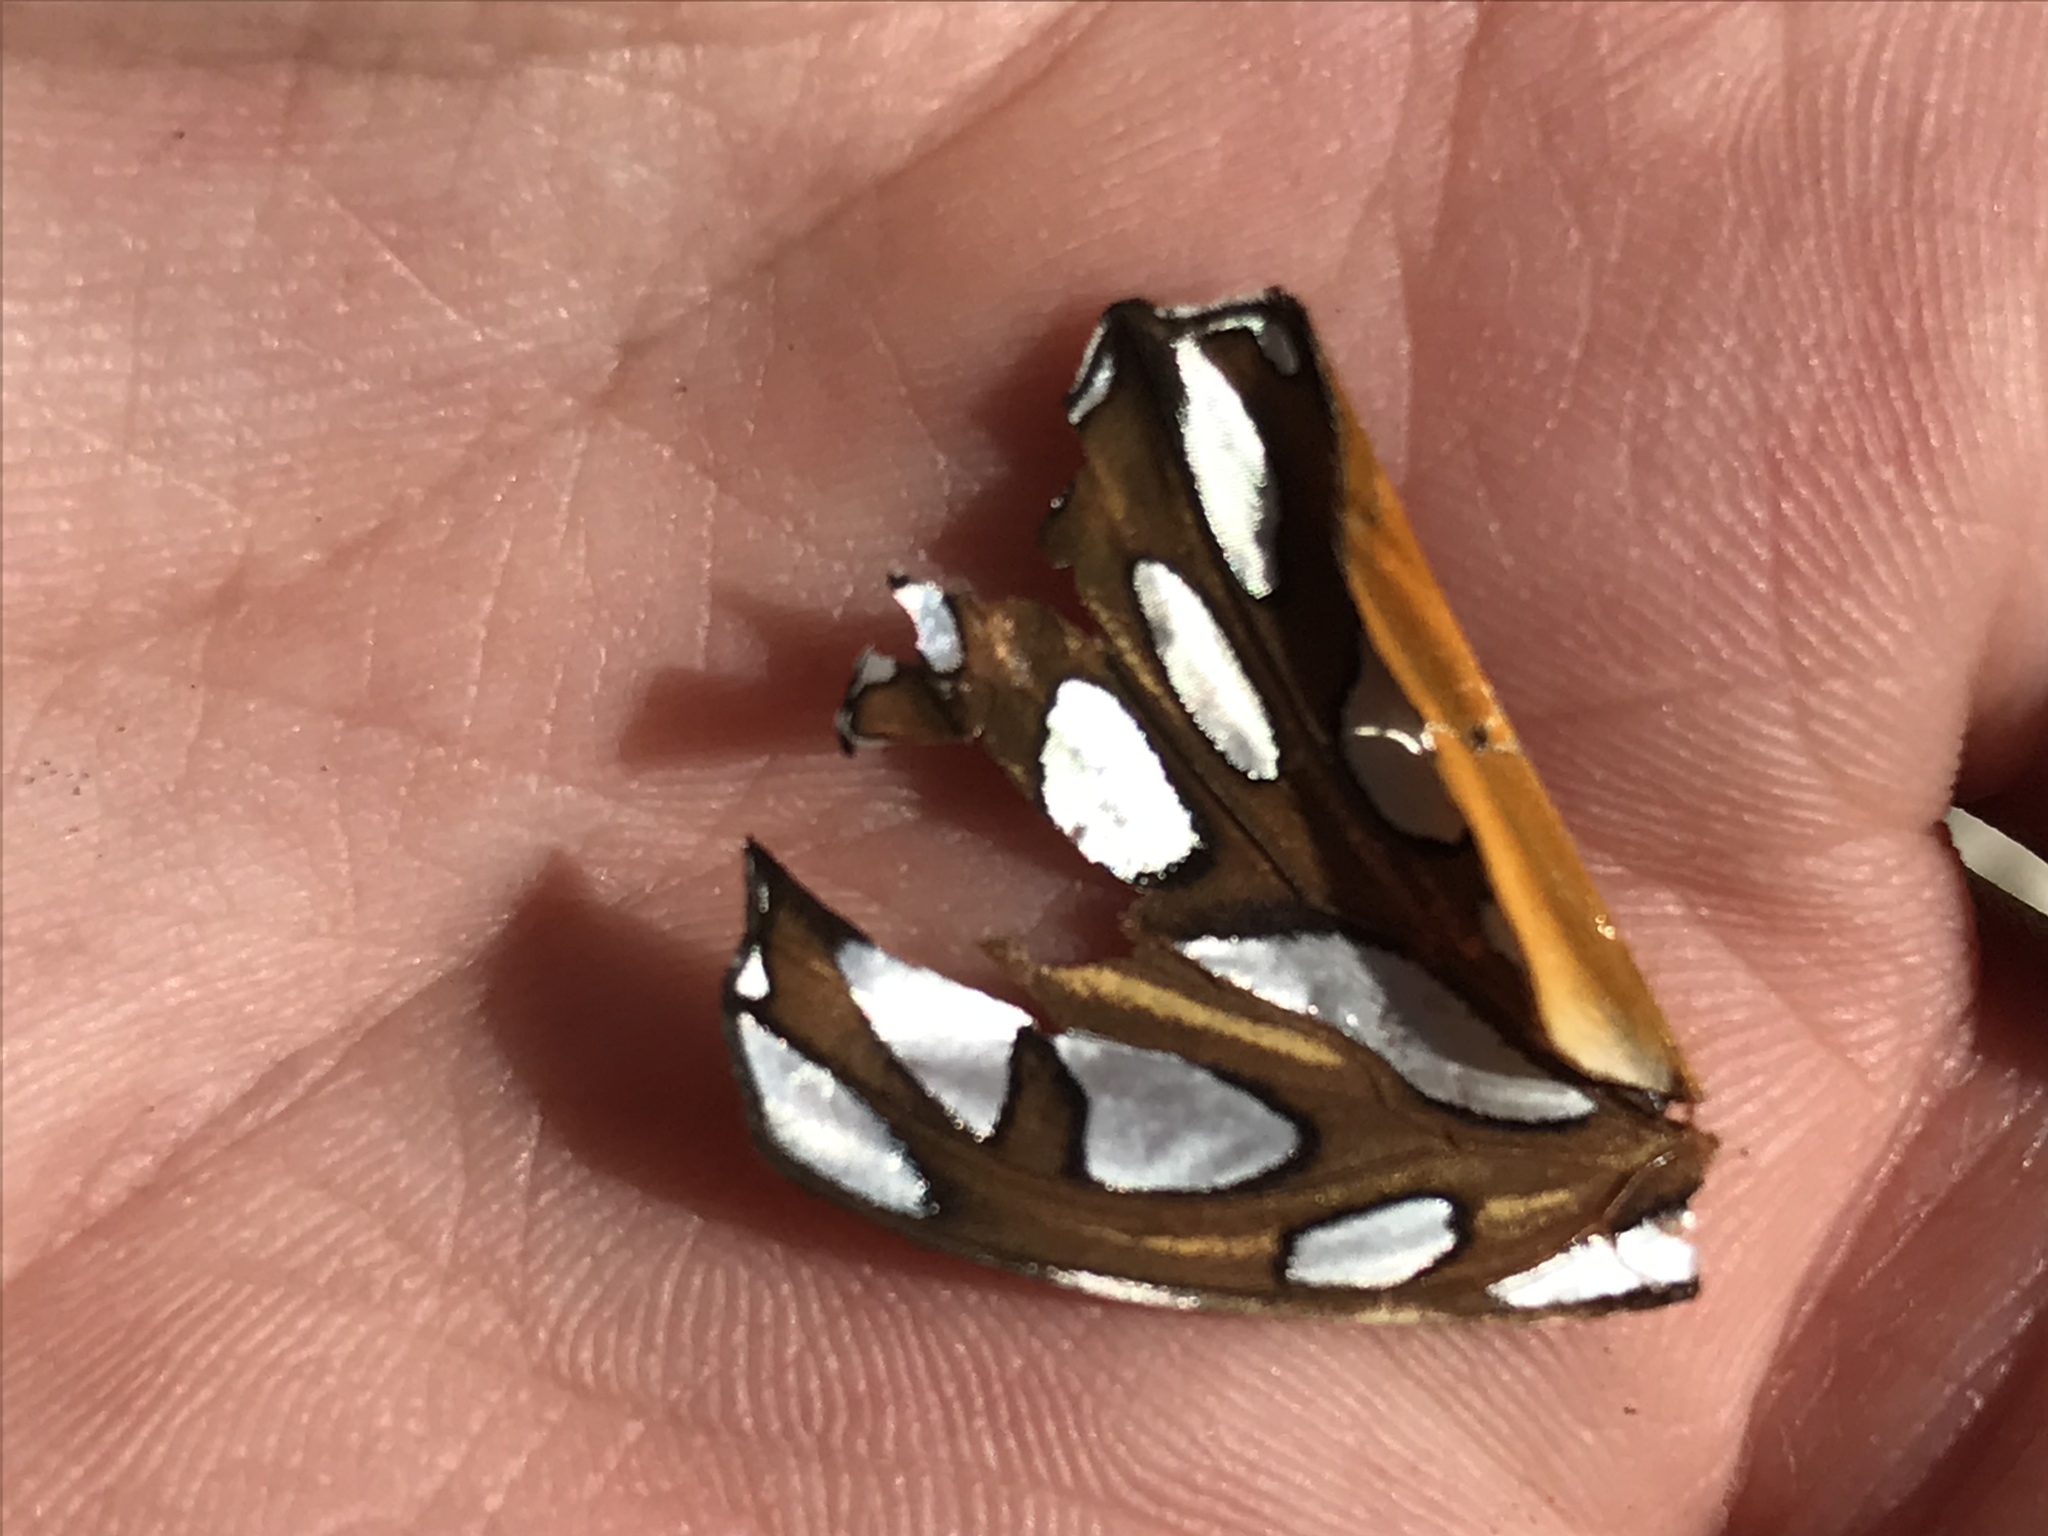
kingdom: Animalia
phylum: Arthropoda
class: Insecta
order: Lepidoptera
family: Nymphalidae
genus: Dione
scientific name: Dione vanillae
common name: Gulf fritillary
